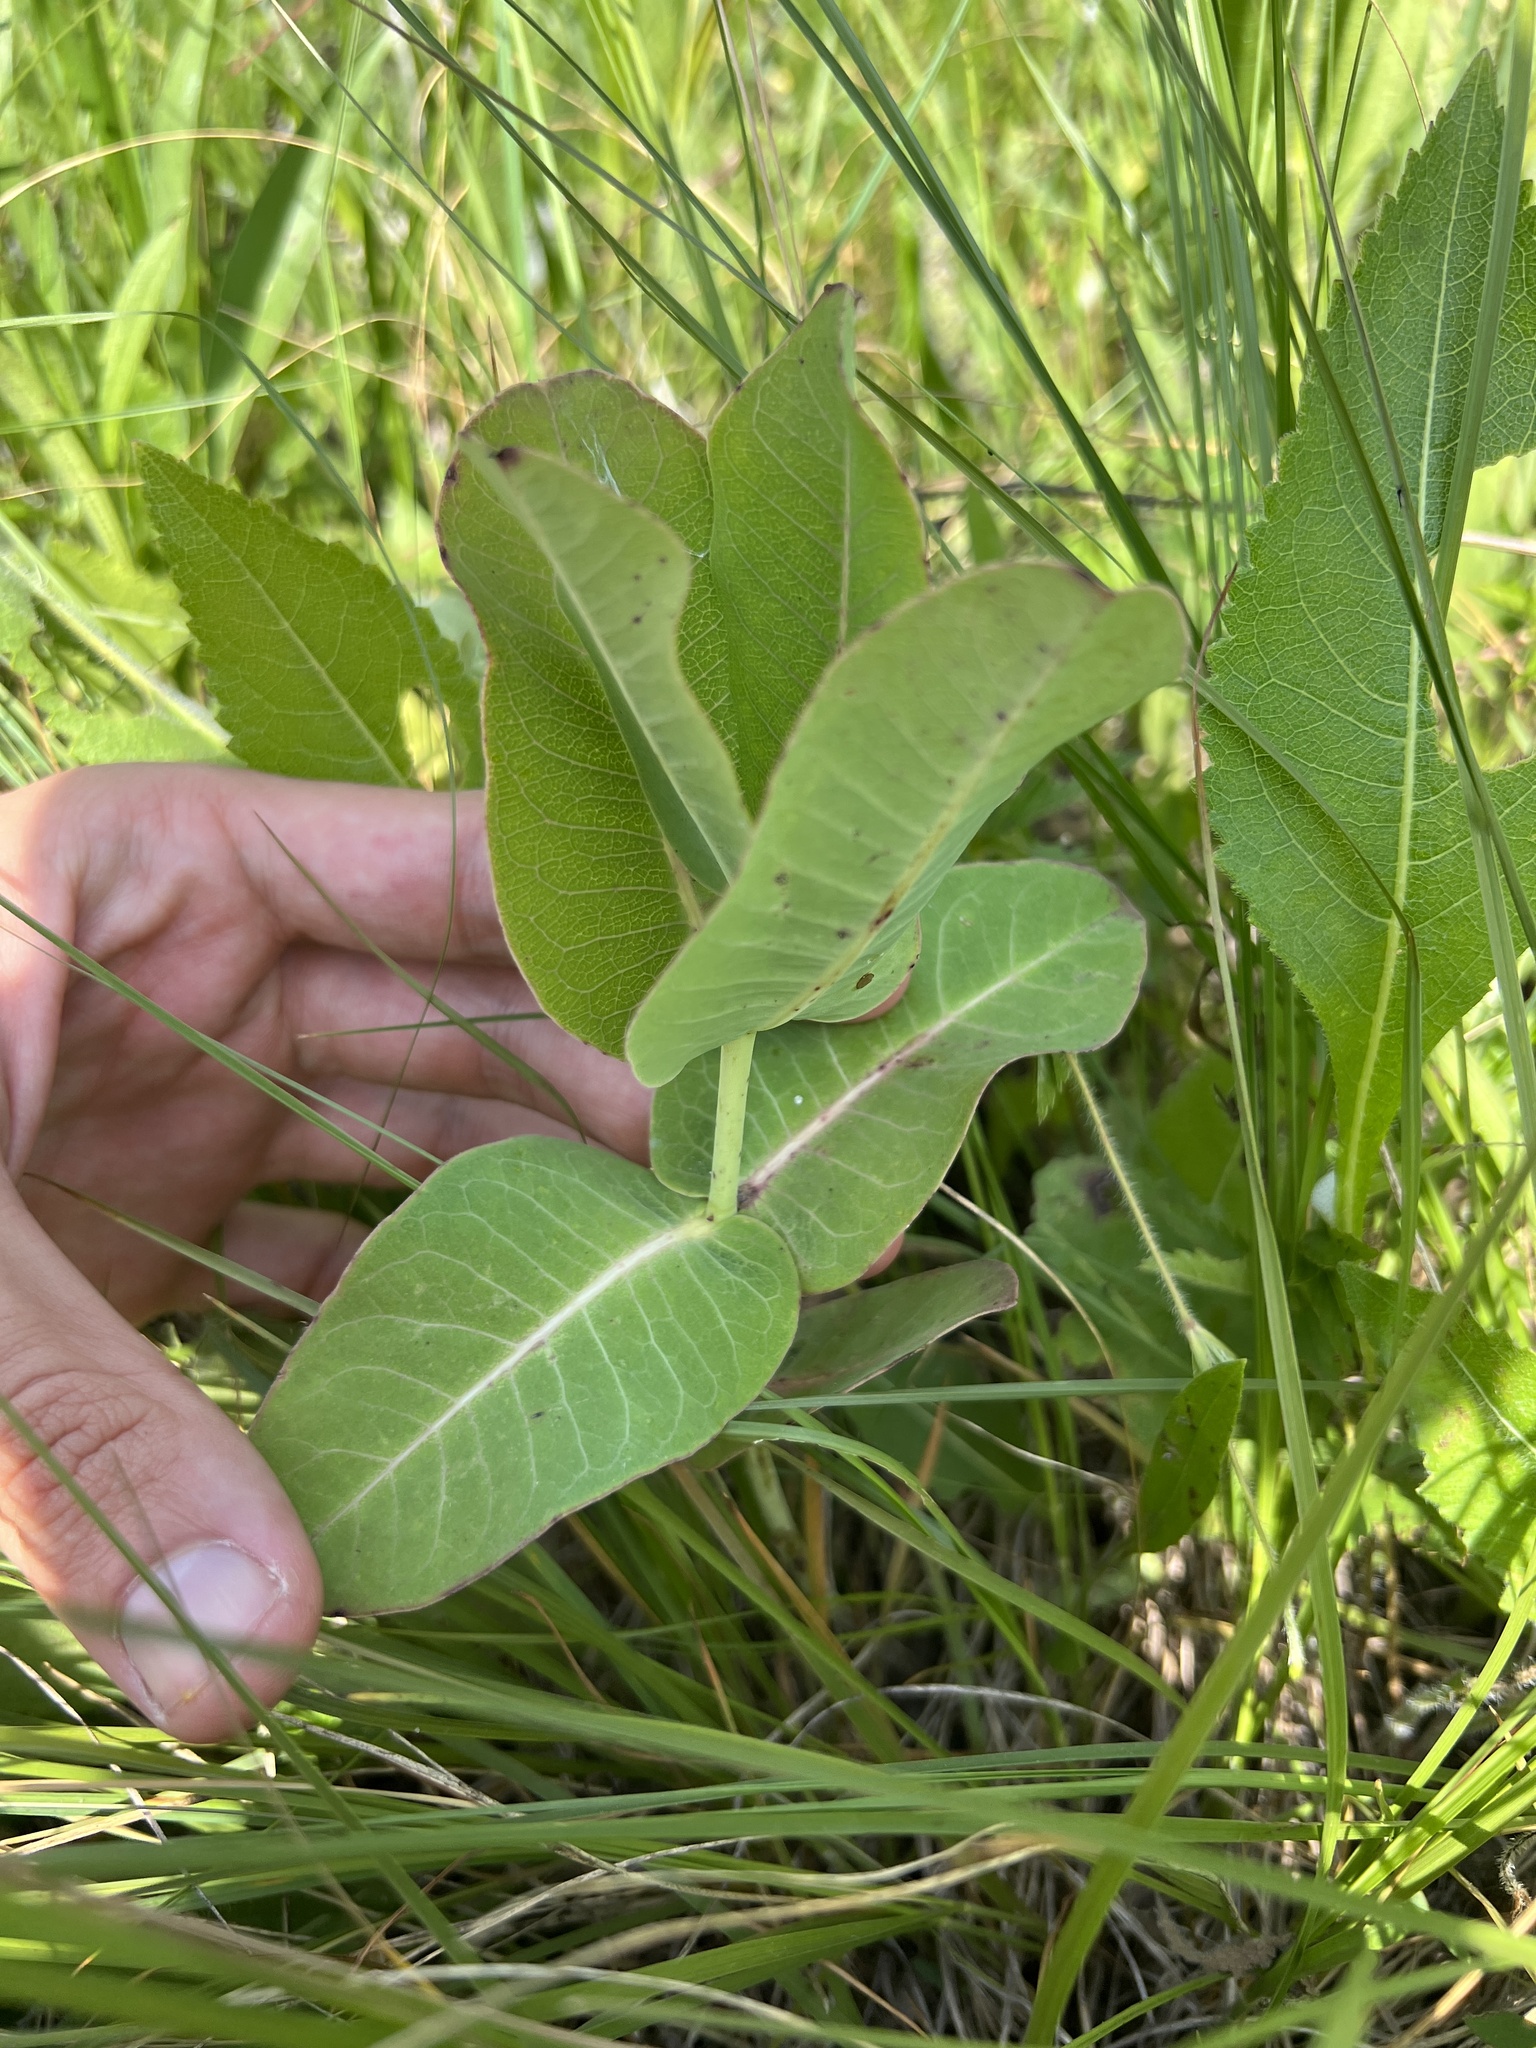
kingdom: Plantae
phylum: Tracheophyta
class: Magnoliopsida
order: Gentianales
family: Apocynaceae
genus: Asclepias
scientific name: Asclepias amplexicaulis
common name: Blunt-leaf milkweed
